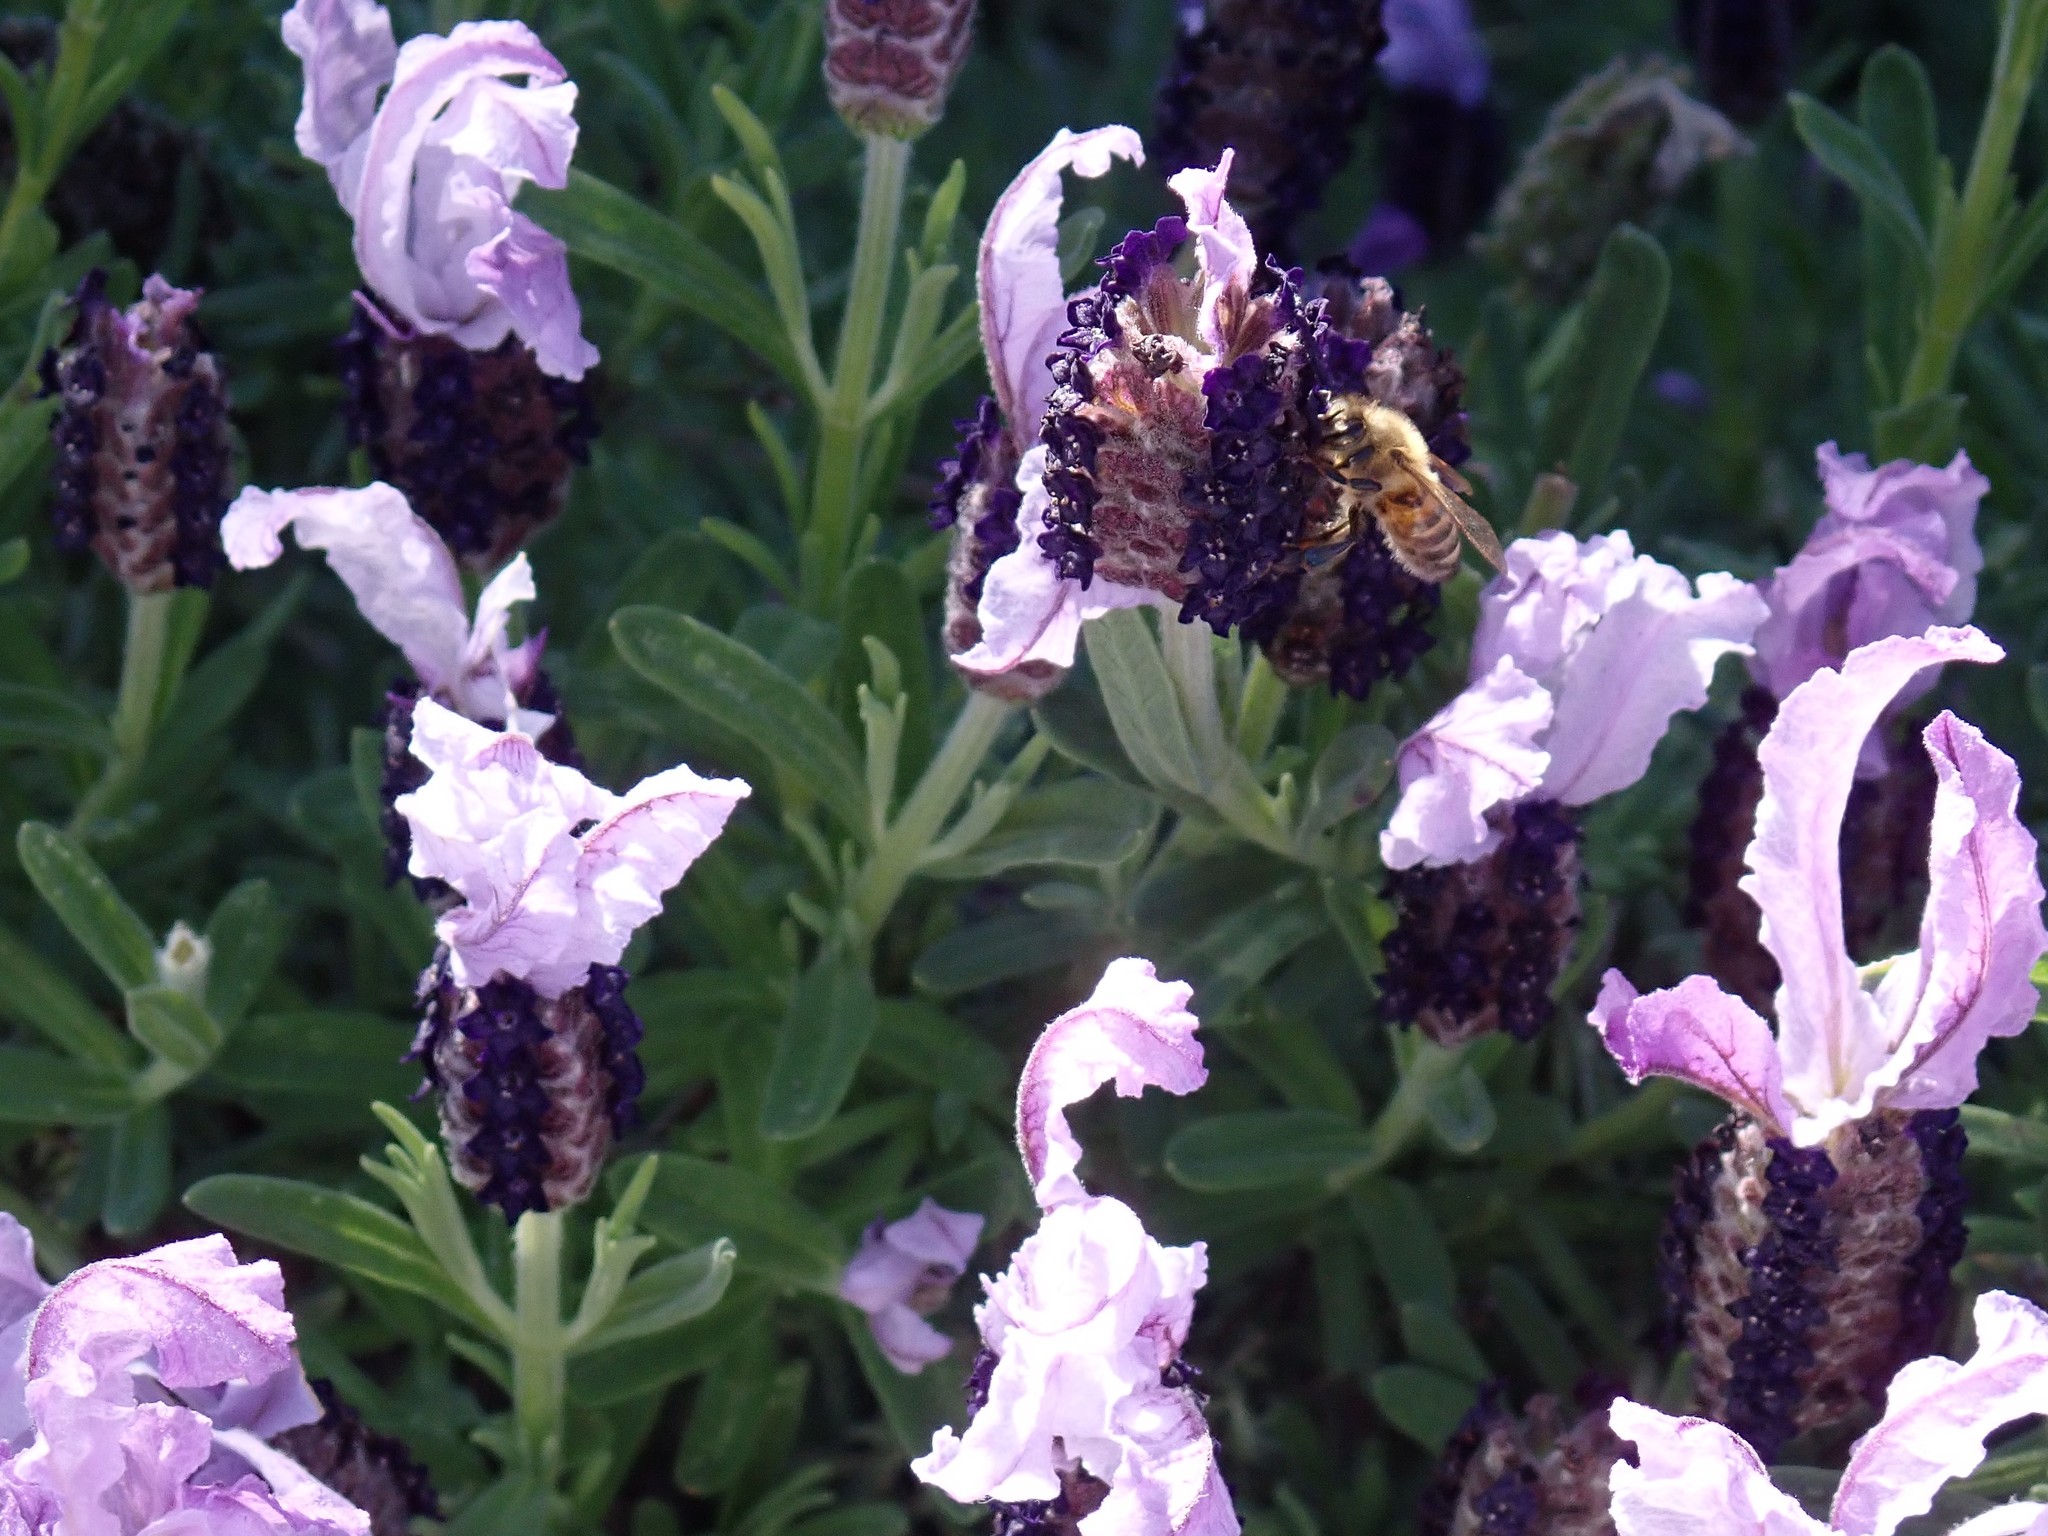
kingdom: Animalia
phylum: Arthropoda
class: Insecta
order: Hymenoptera
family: Apidae
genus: Apis
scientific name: Apis mellifera
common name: Honey bee
